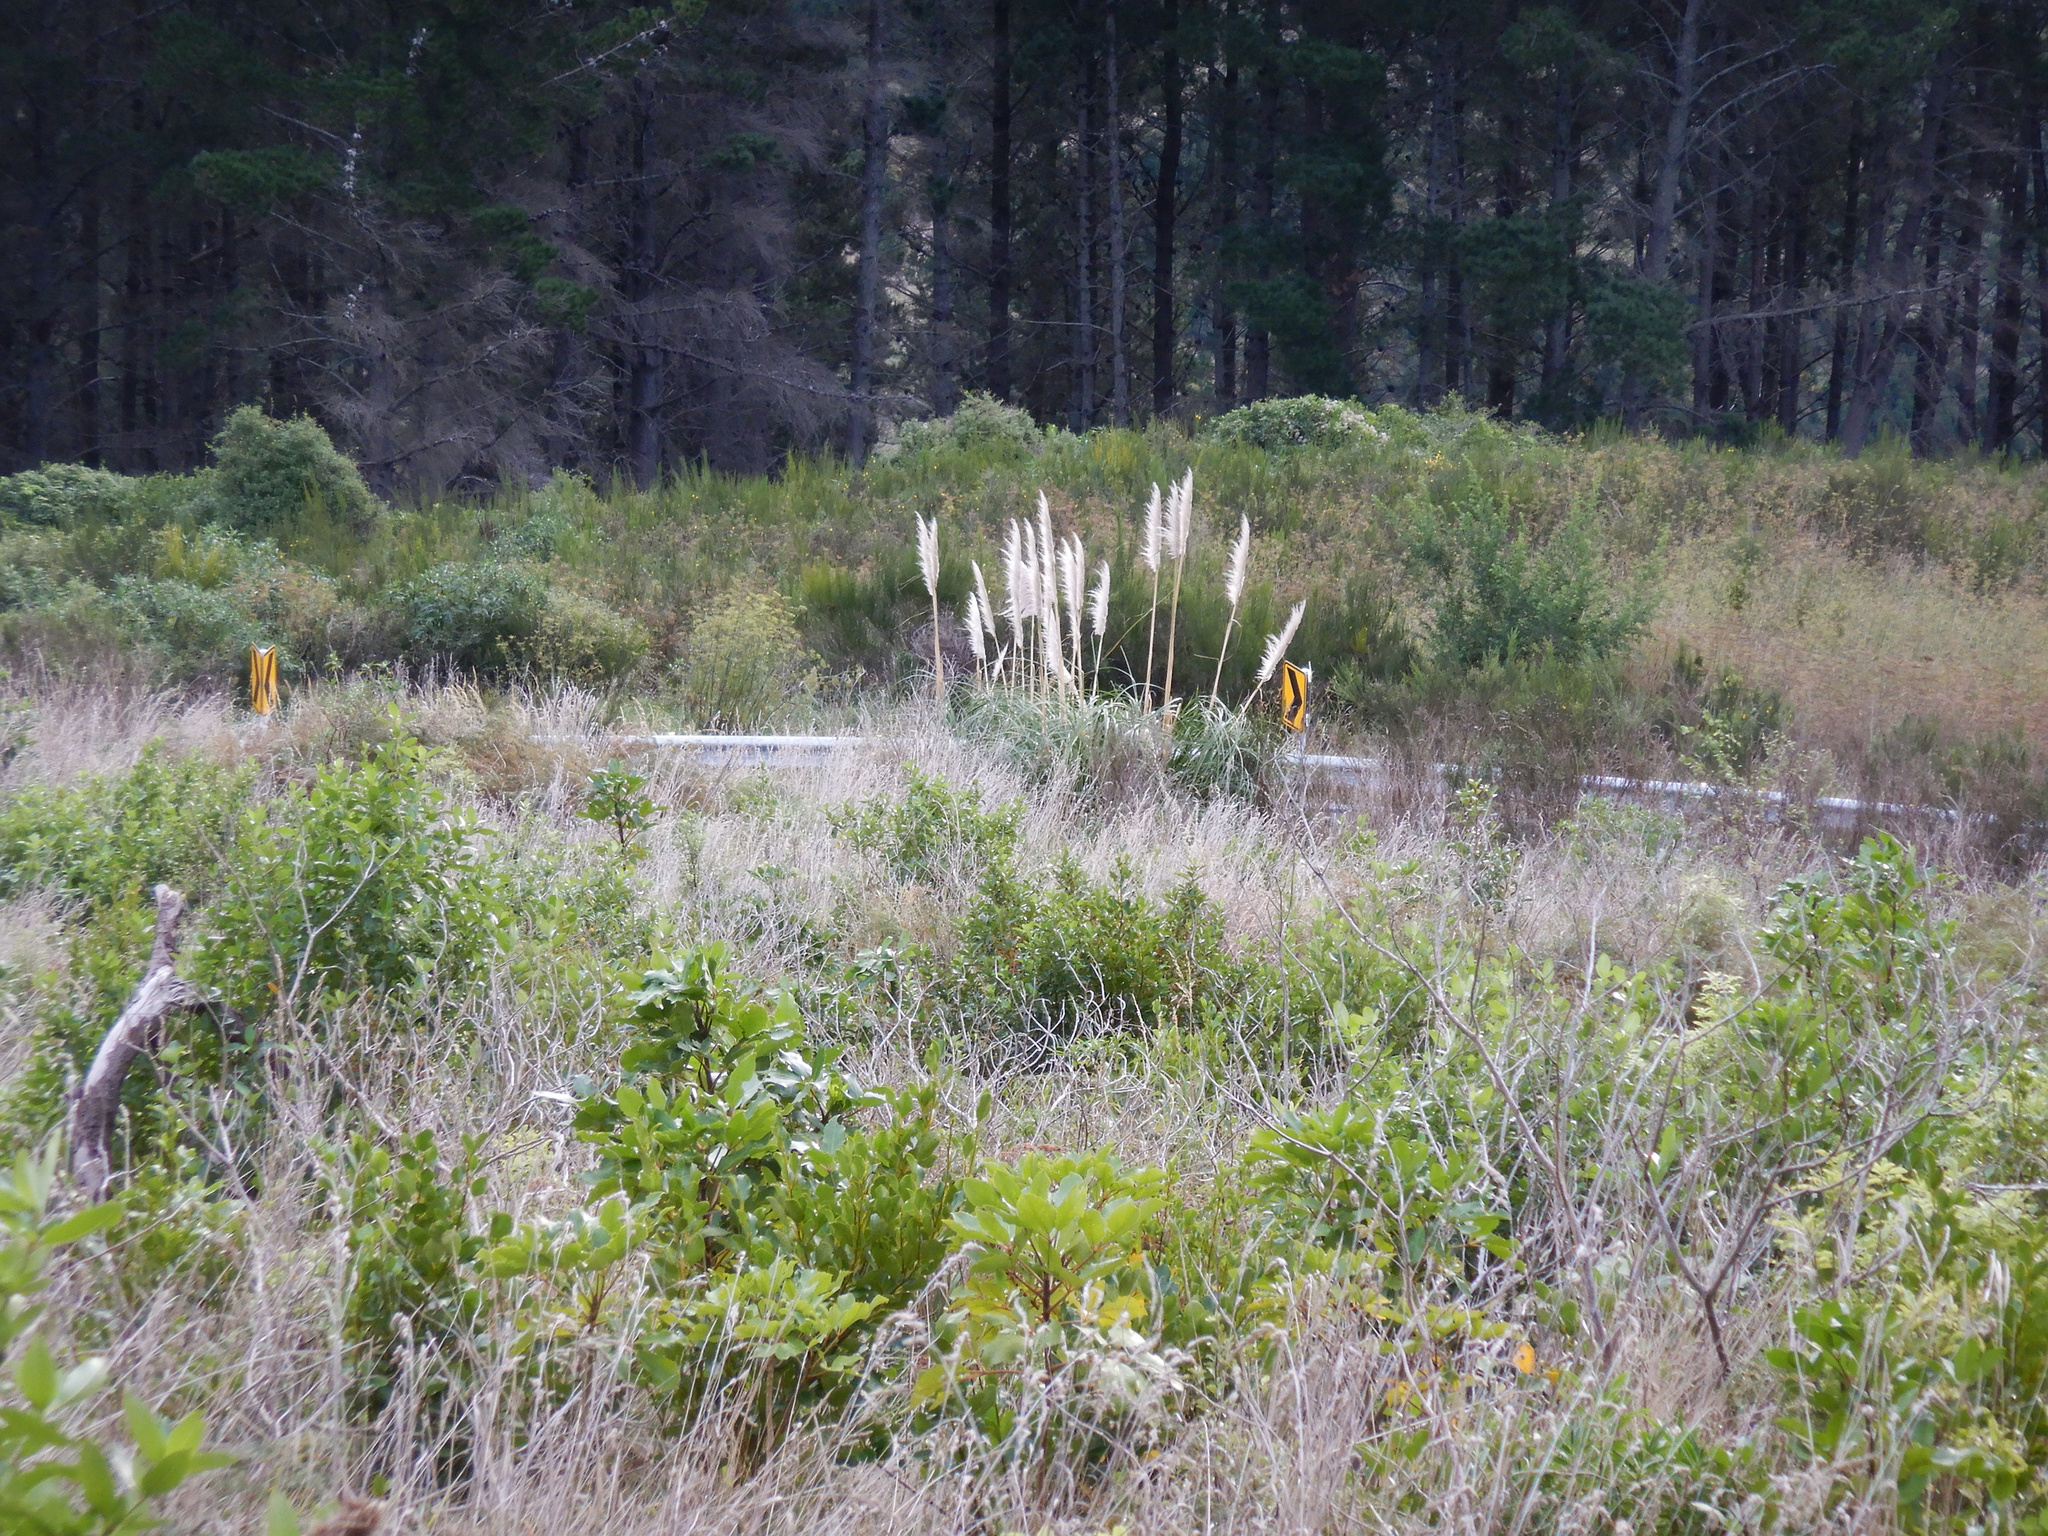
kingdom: Plantae
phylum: Tracheophyta
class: Liliopsida
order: Poales
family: Poaceae
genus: Cortaderia
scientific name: Cortaderia selloana
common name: Uruguayan pampas grass
